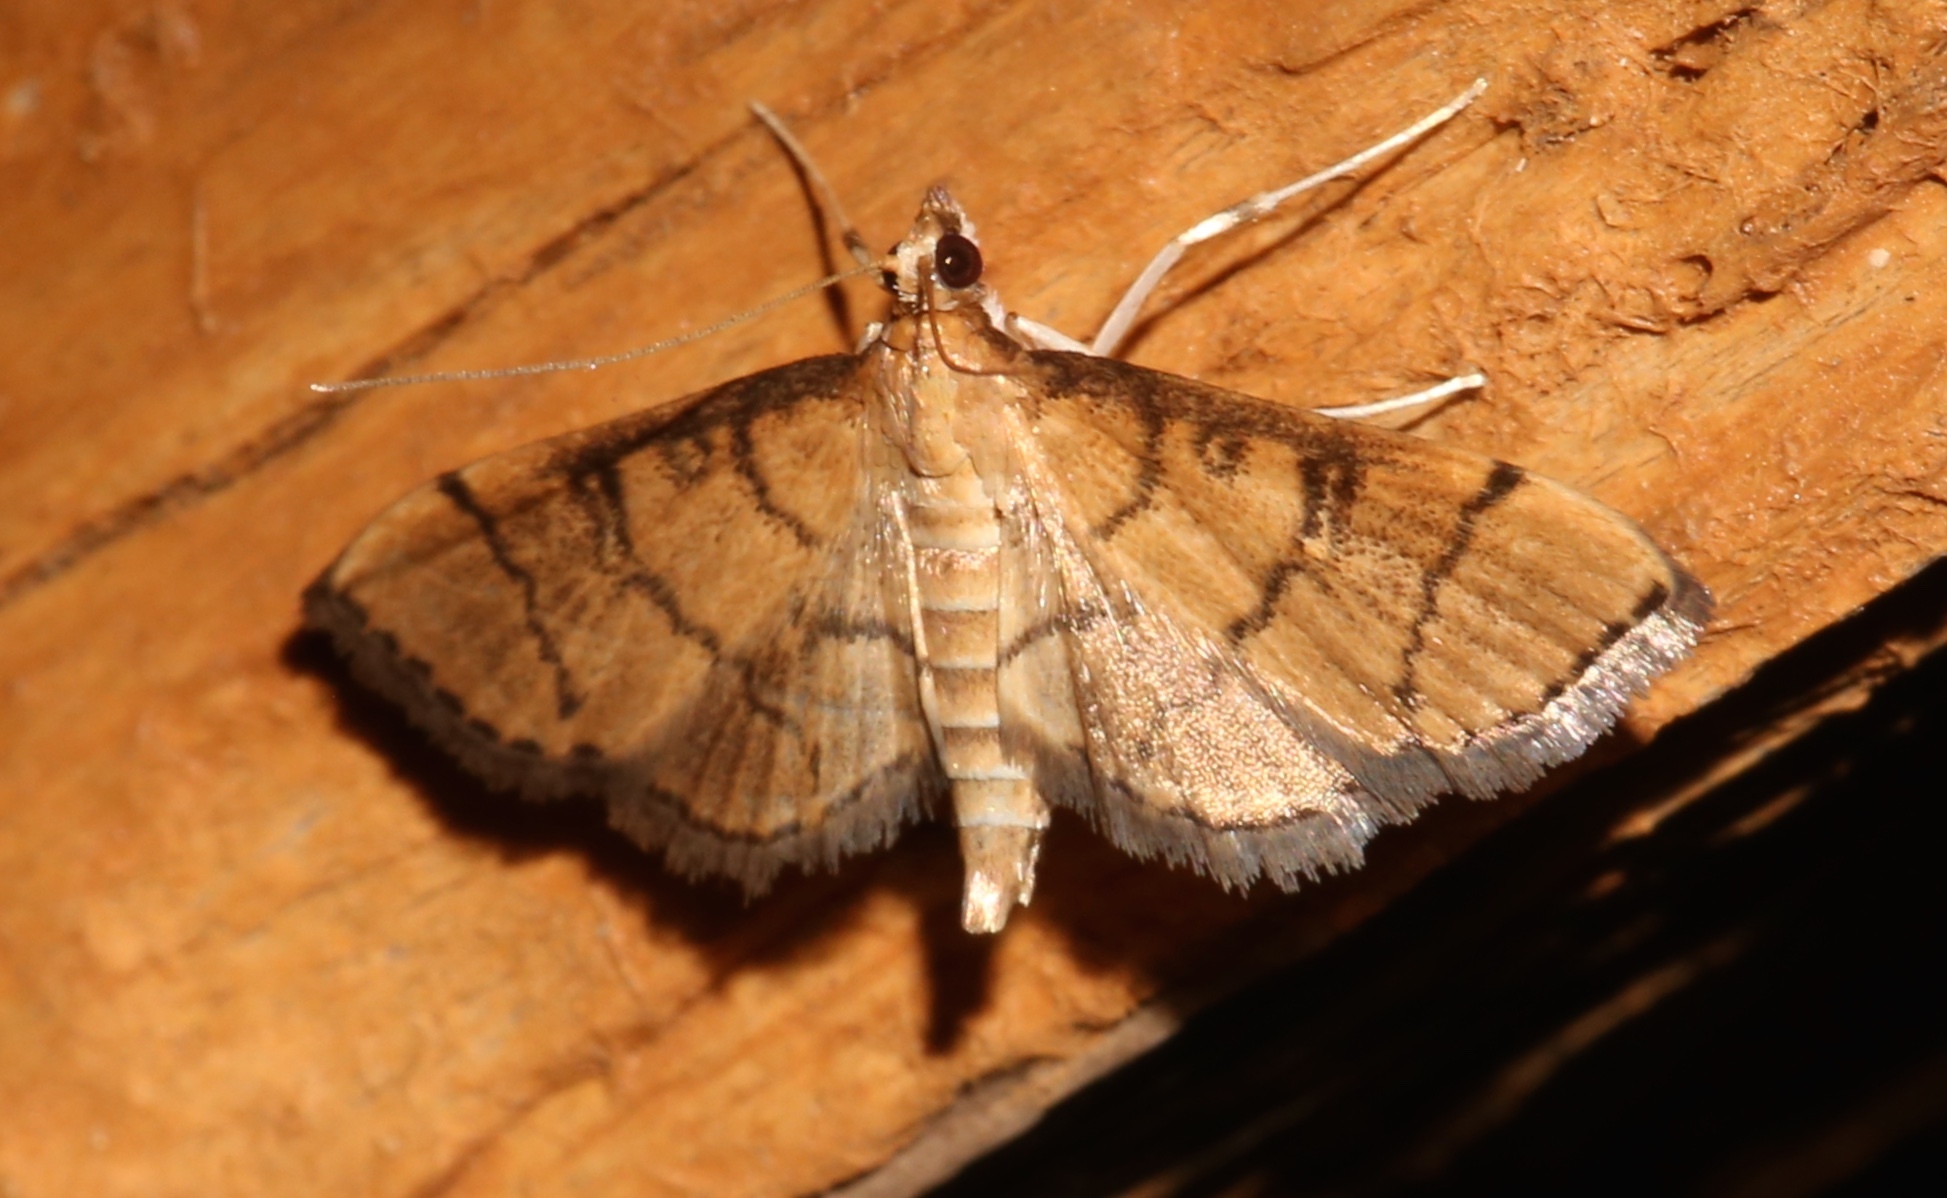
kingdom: Animalia
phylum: Arthropoda
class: Insecta
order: Lepidoptera
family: Crambidae
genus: Lamprosema
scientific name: Lamprosema Blepharomastix ranalis
